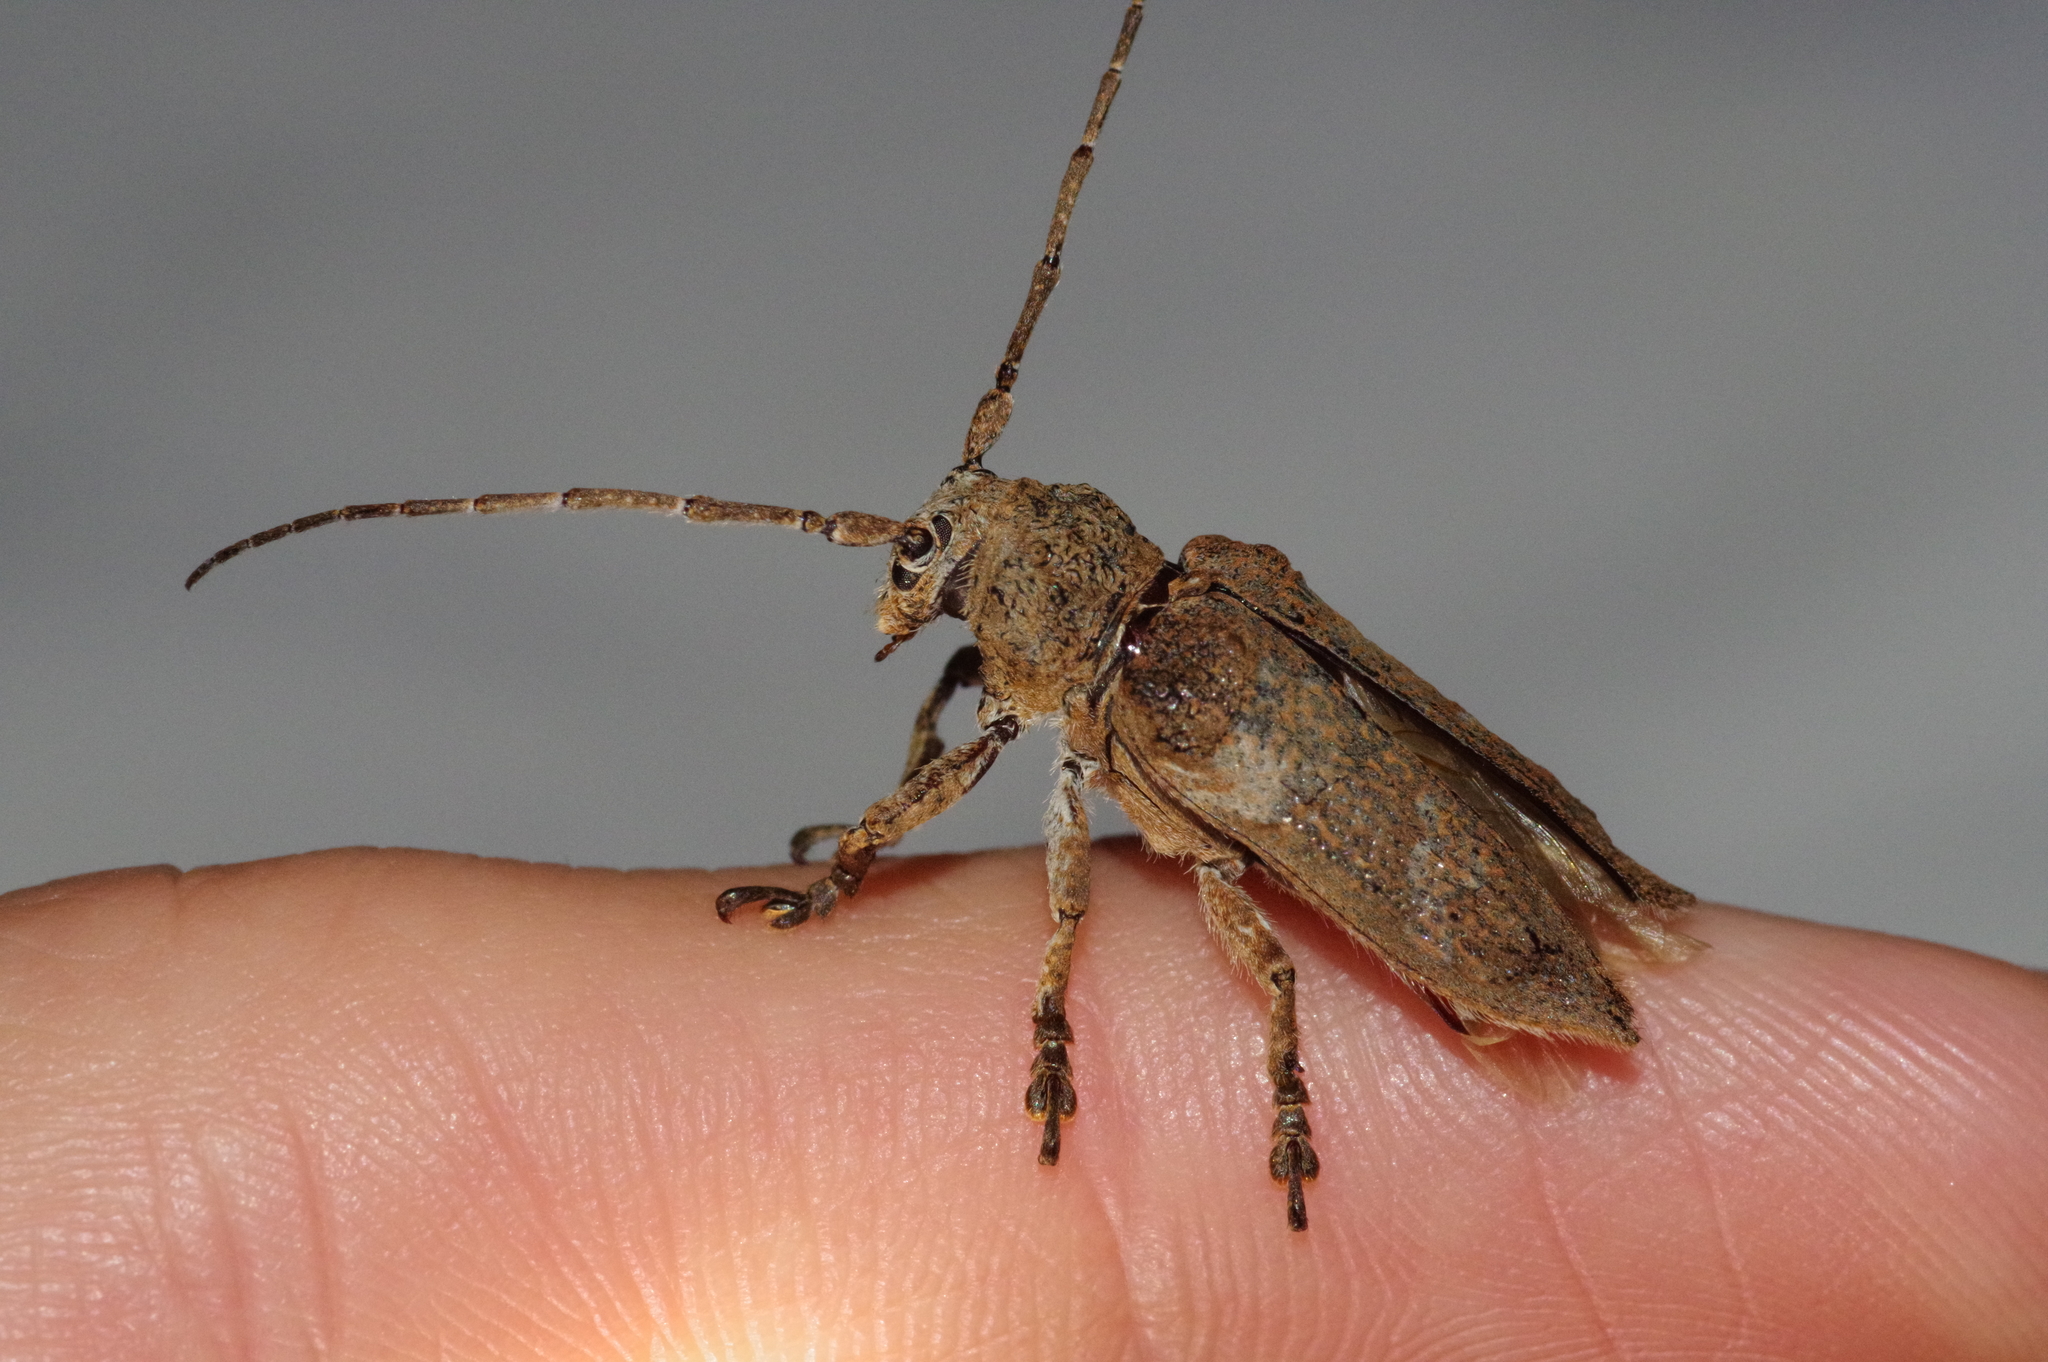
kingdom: Animalia
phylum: Arthropoda
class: Insecta
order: Coleoptera
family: Cerambycidae
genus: Niphona
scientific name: Niphona yanoi
